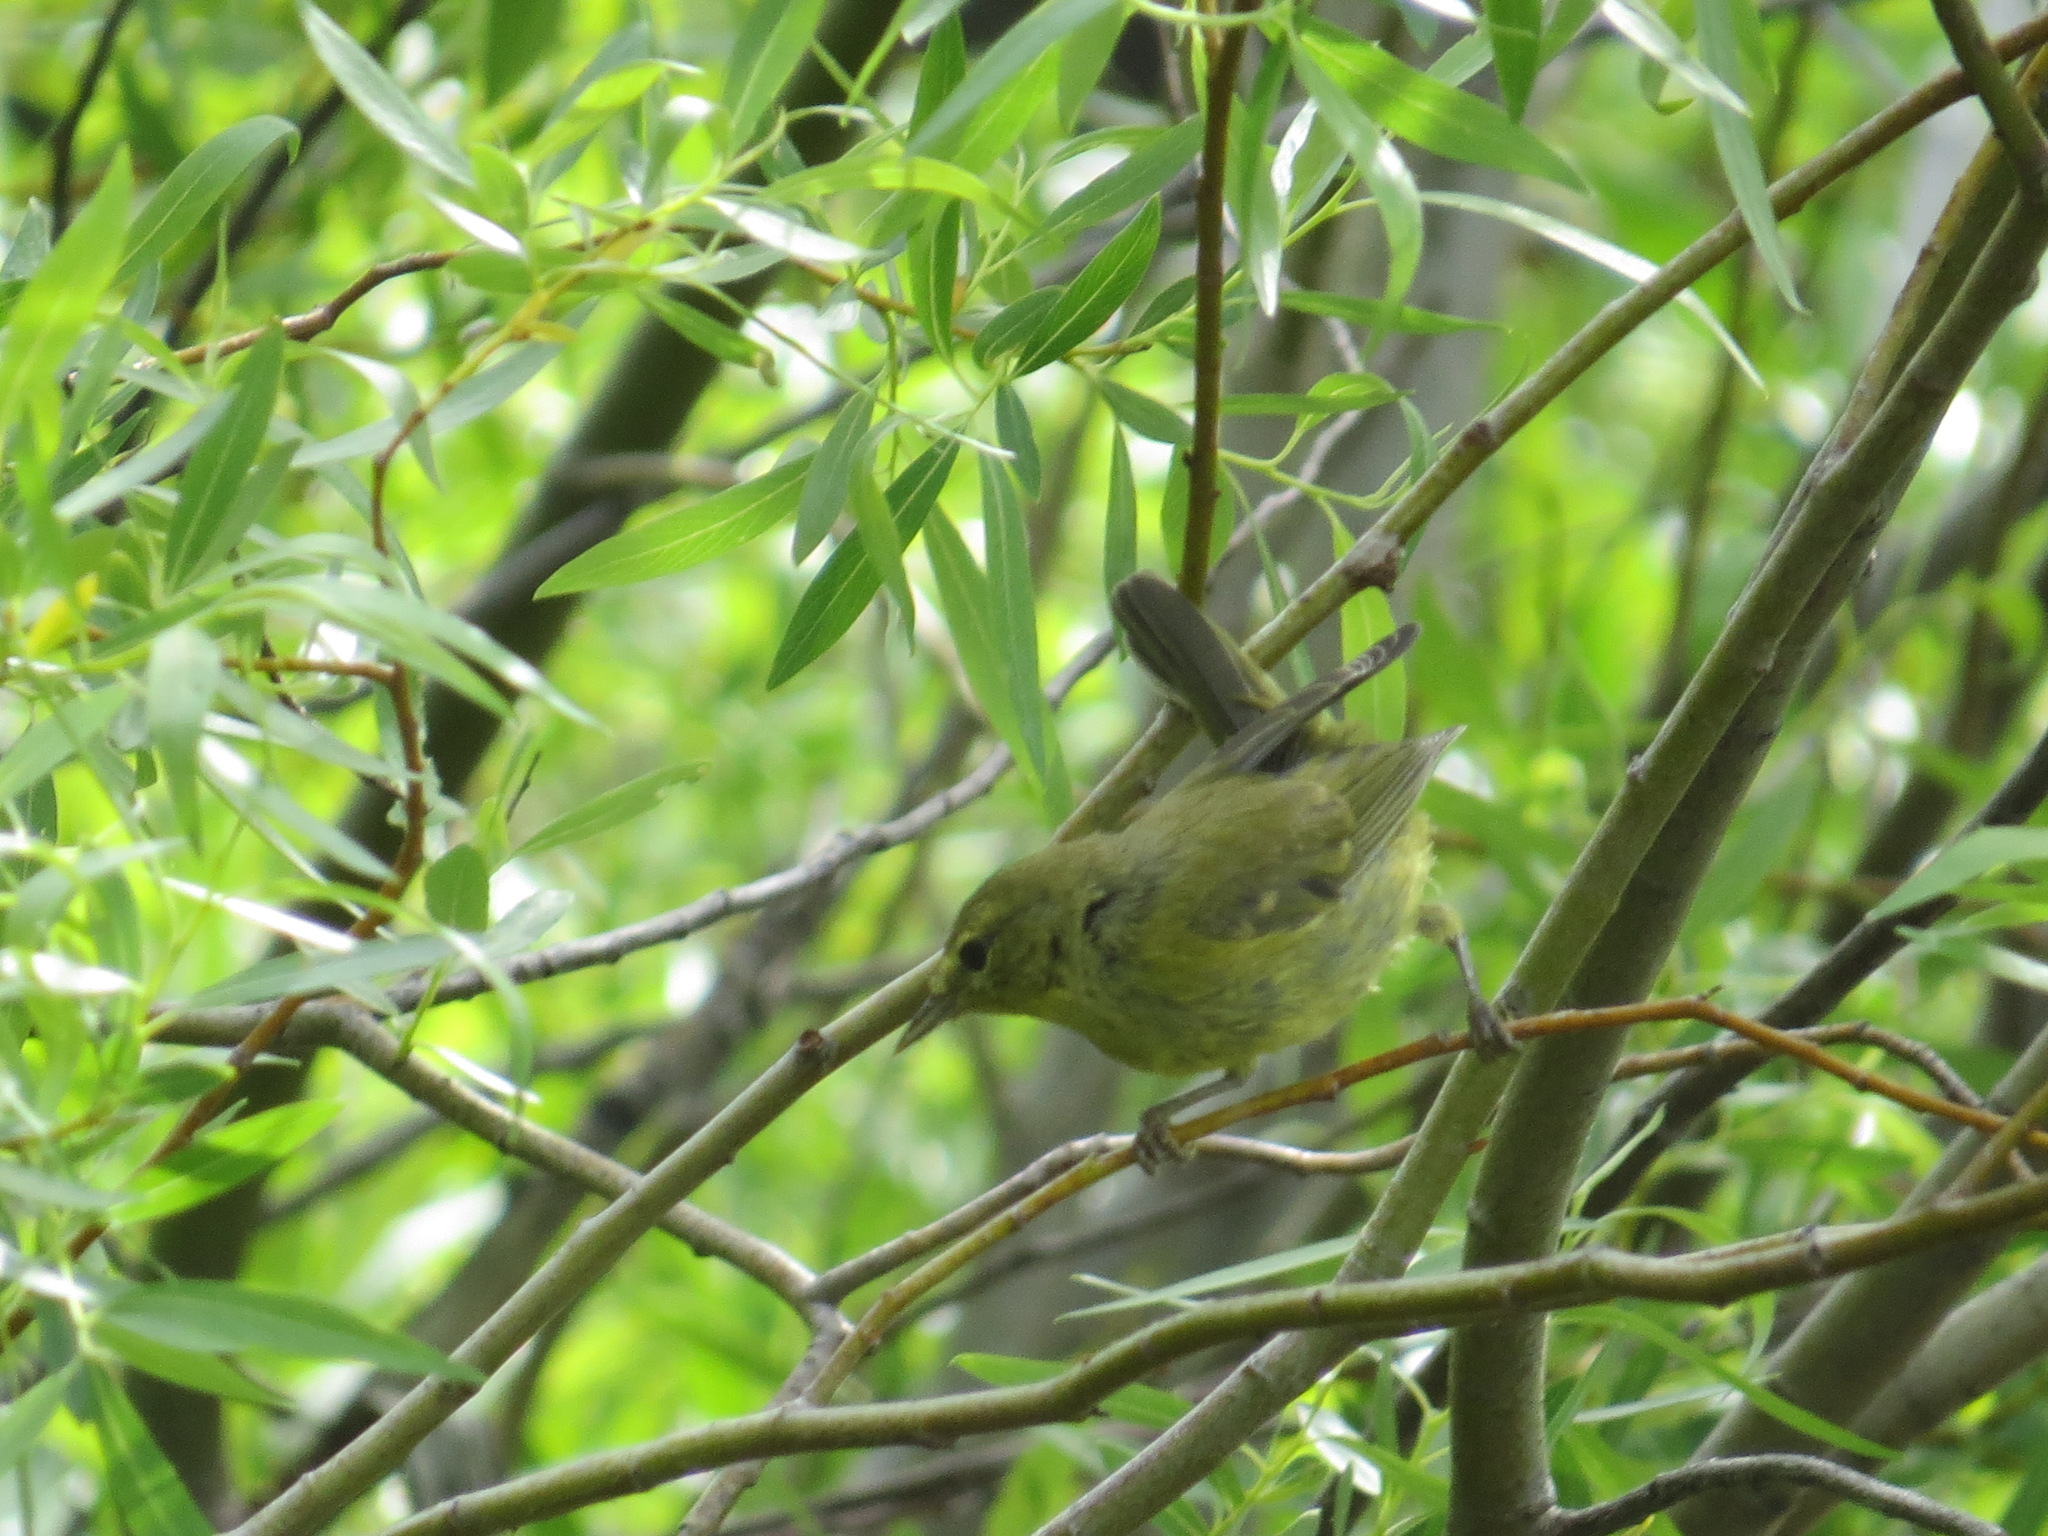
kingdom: Animalia
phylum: Chordata
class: Aves
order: Passeriformes
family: Parulidae
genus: Leiothlypis
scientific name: Leiothlypis celata
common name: Orange-crowned warbler
